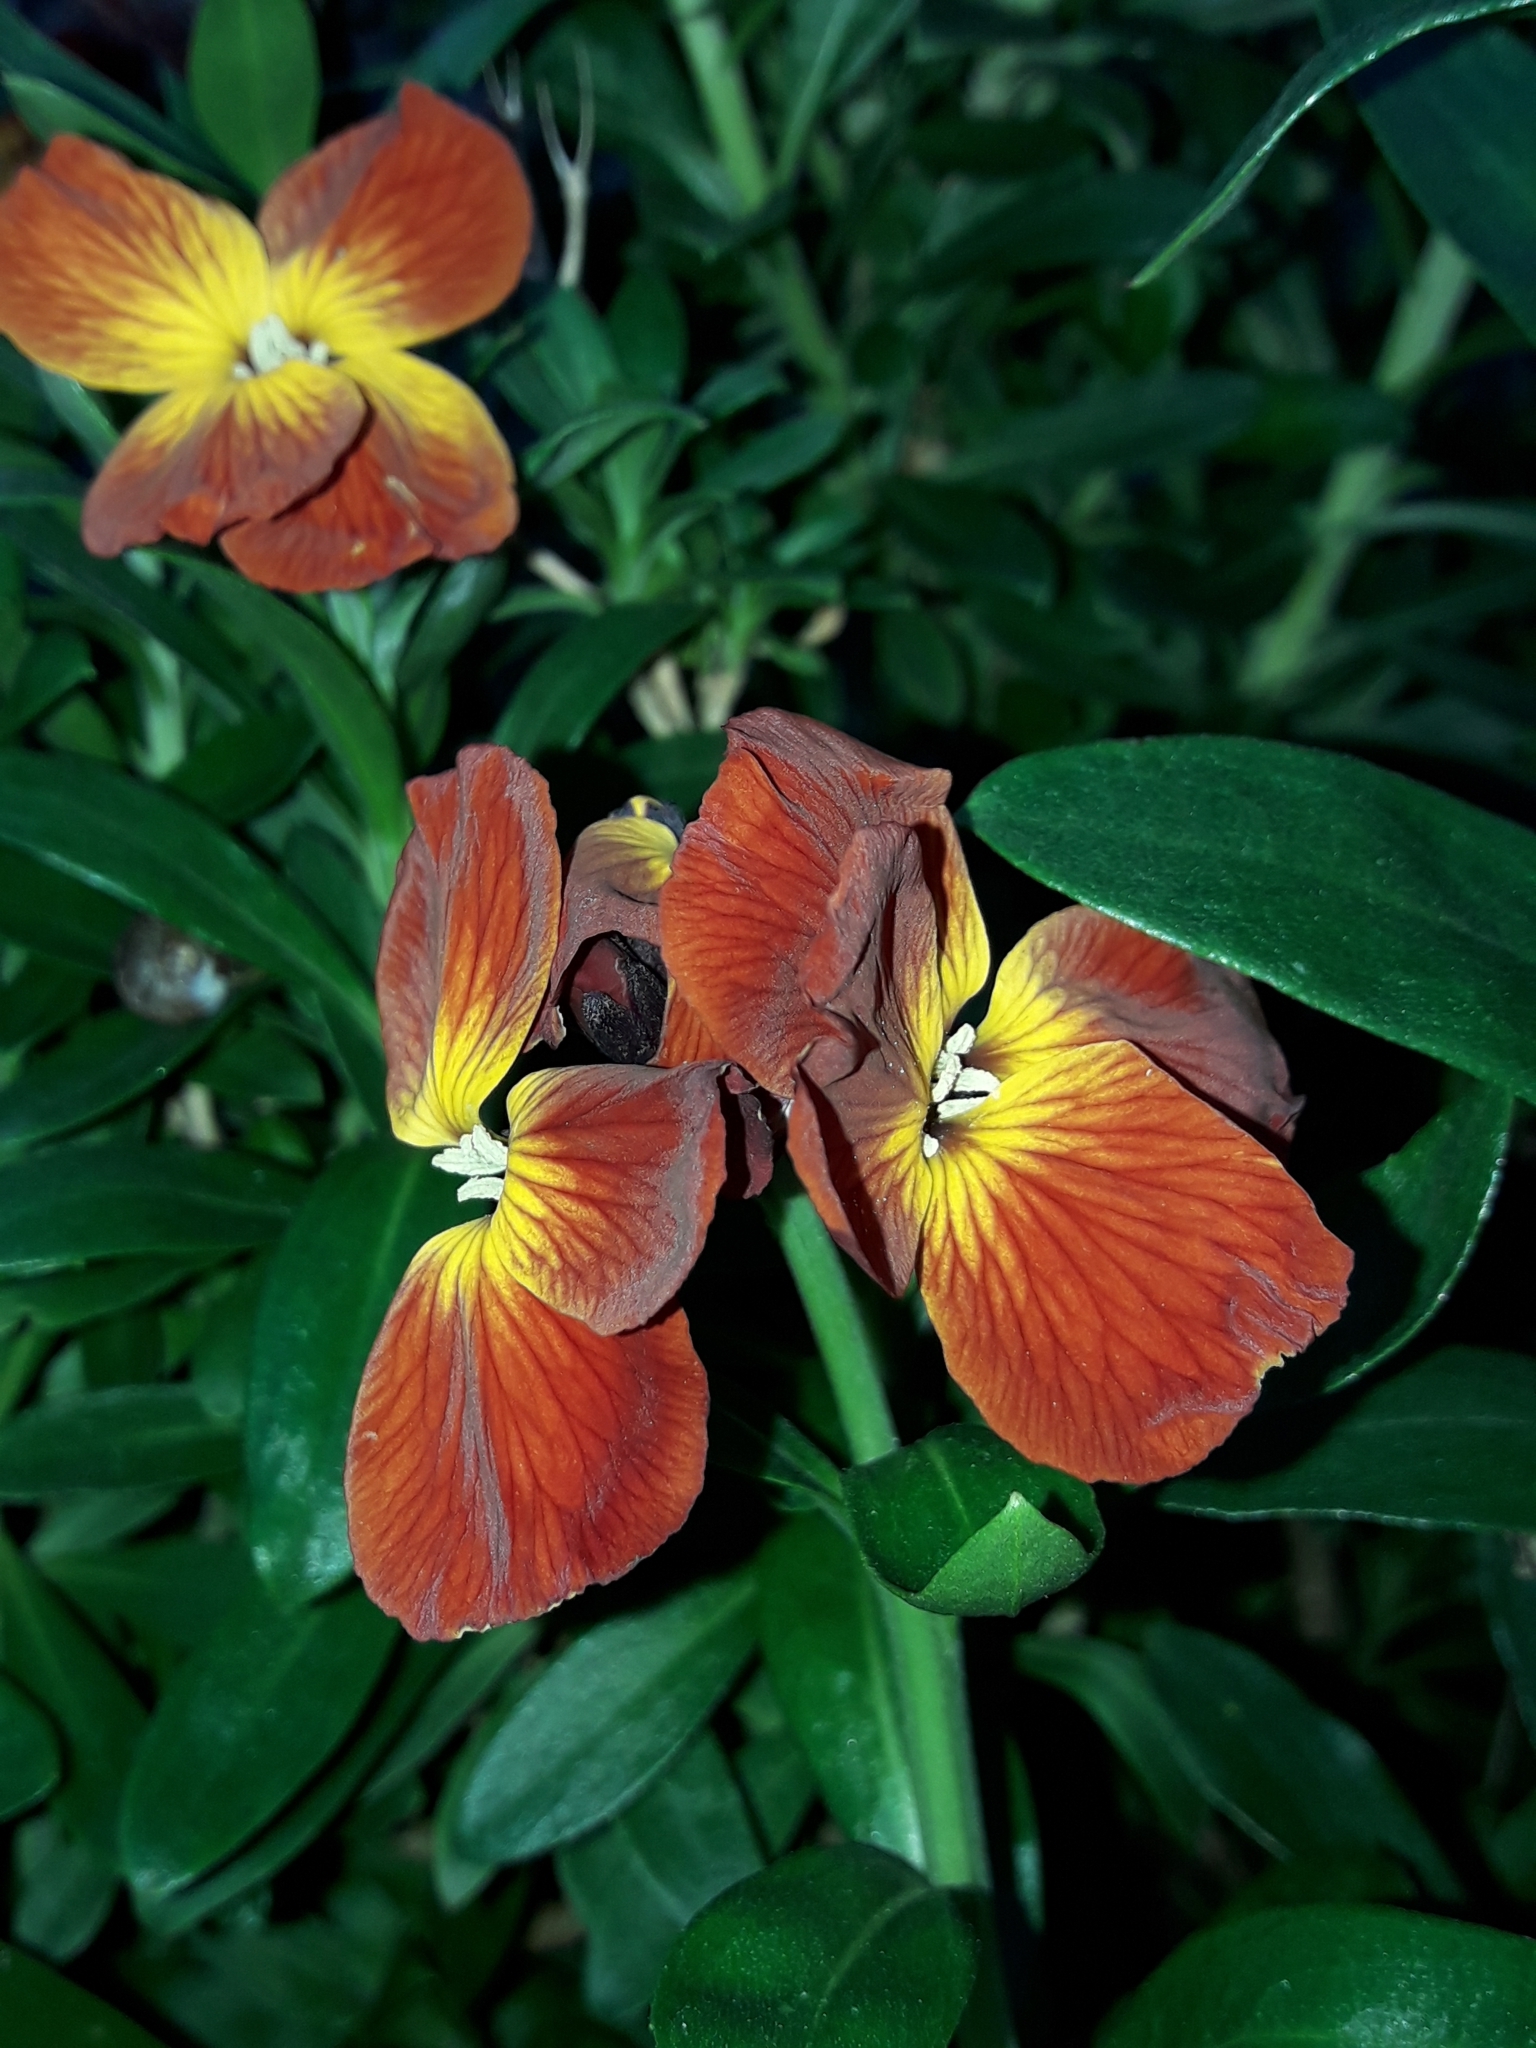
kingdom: Plantae
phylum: Tracheophyta
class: Magnoliopsida
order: Brassicales
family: Brassicaceae
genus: Erysimum
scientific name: Erysimum cheiri
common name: Wallflower
